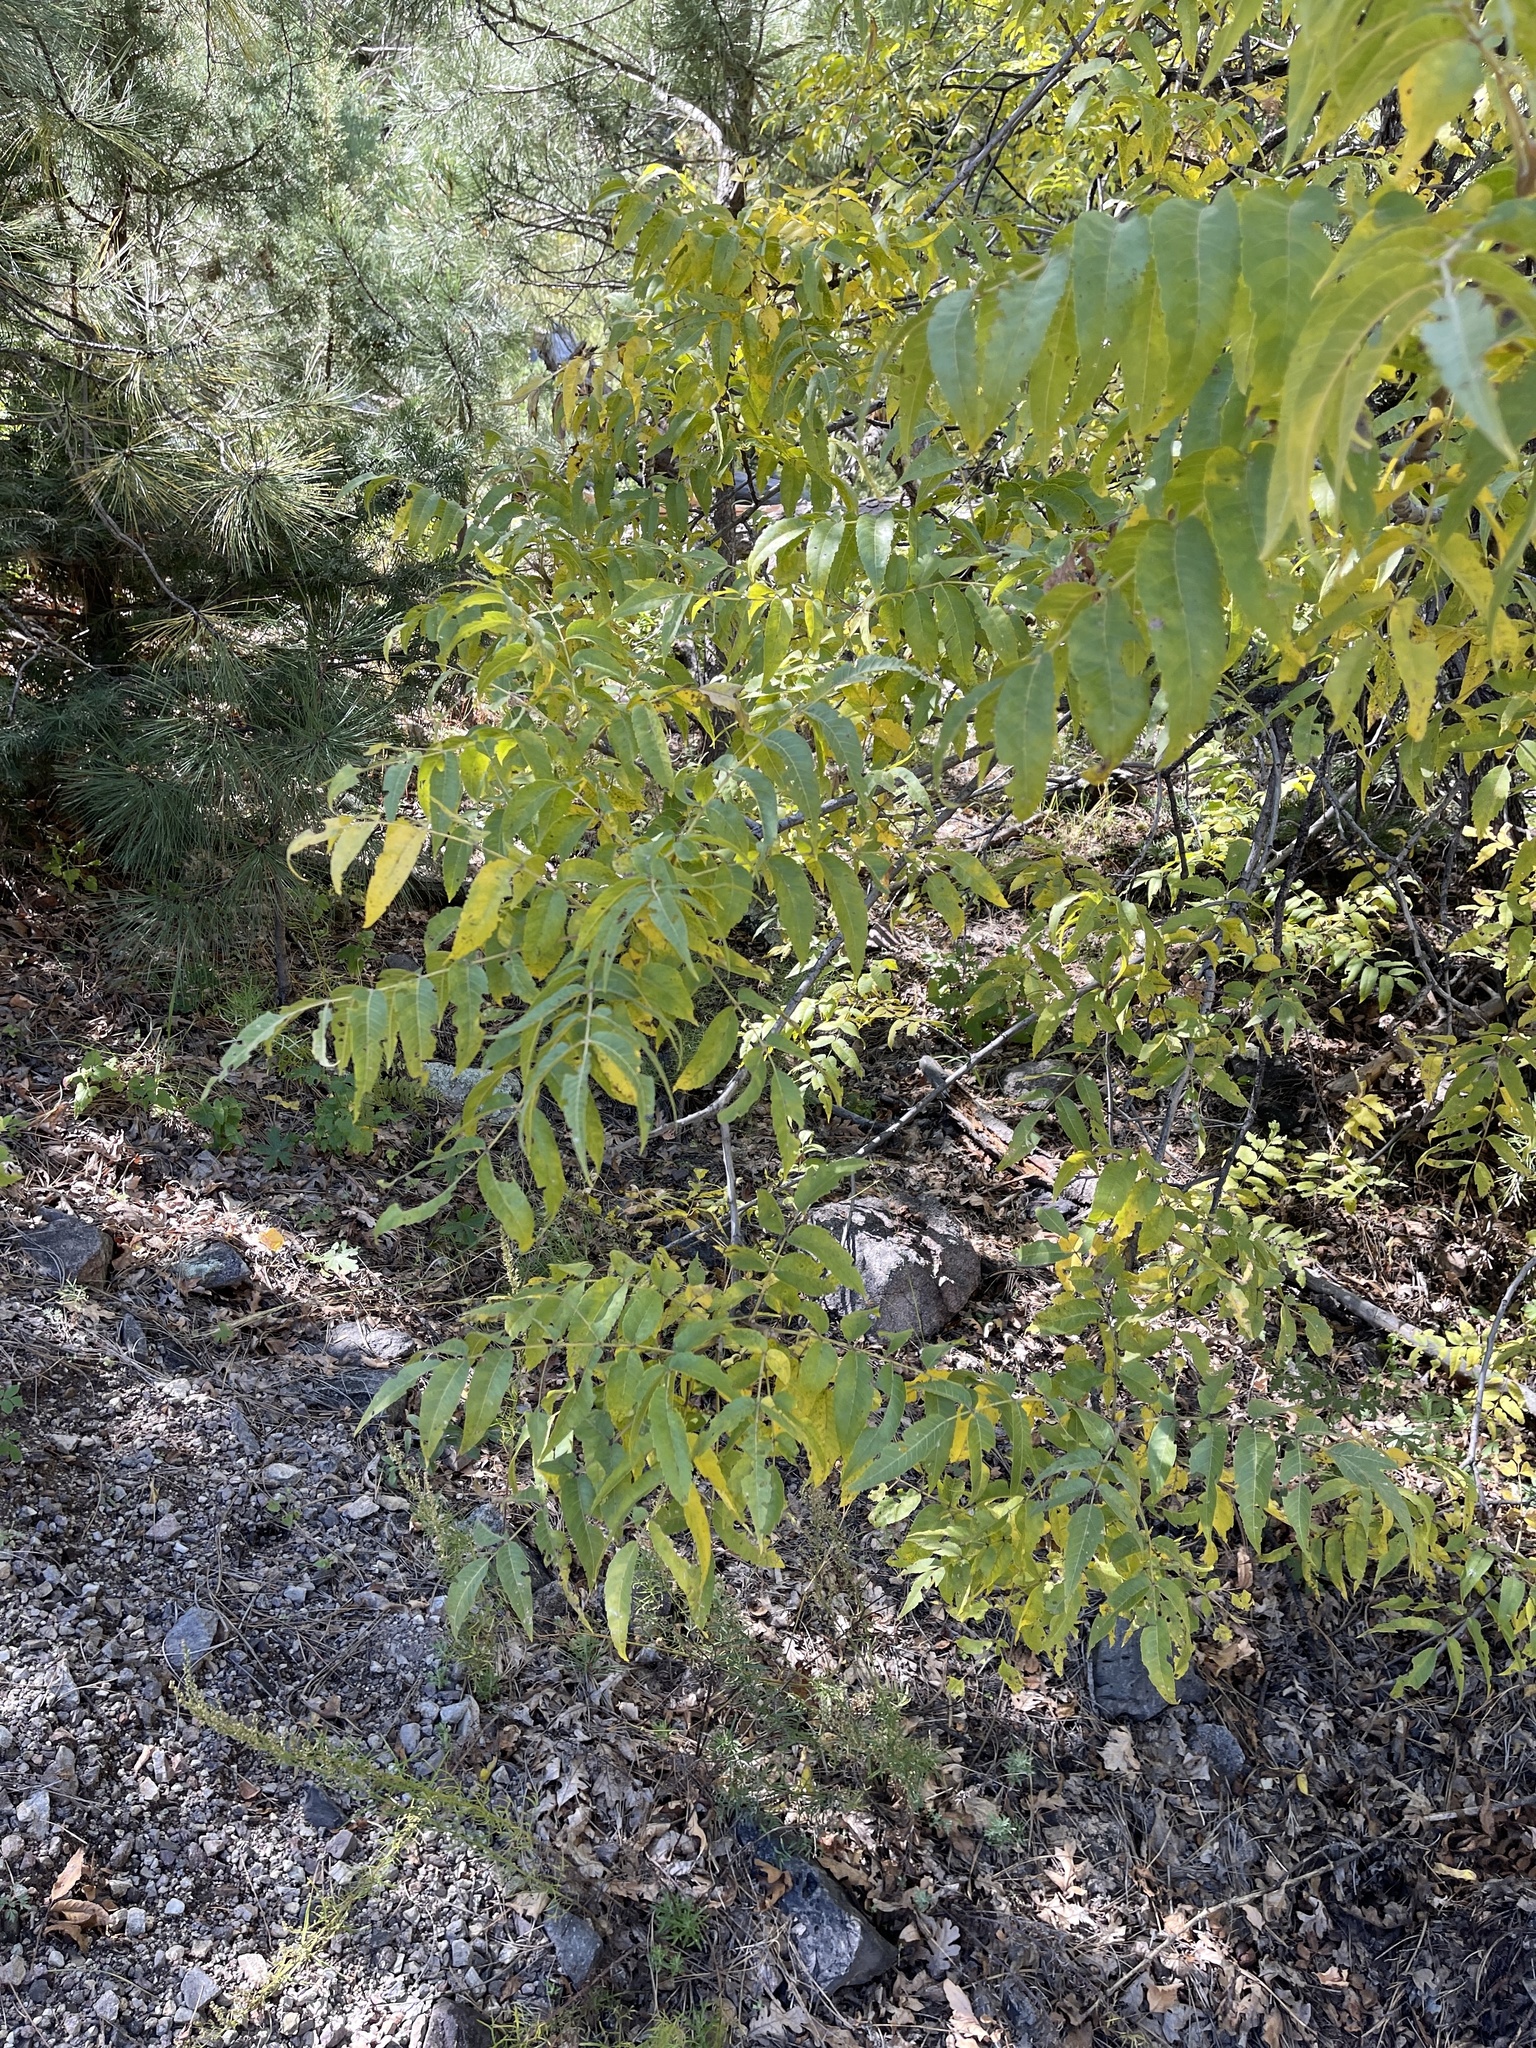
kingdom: Plantae
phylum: Tracheophyta
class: Magnoliopsida
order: Fagales
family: Juglandaceae
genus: Juglans
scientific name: Juglans major
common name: Arizona walnut
